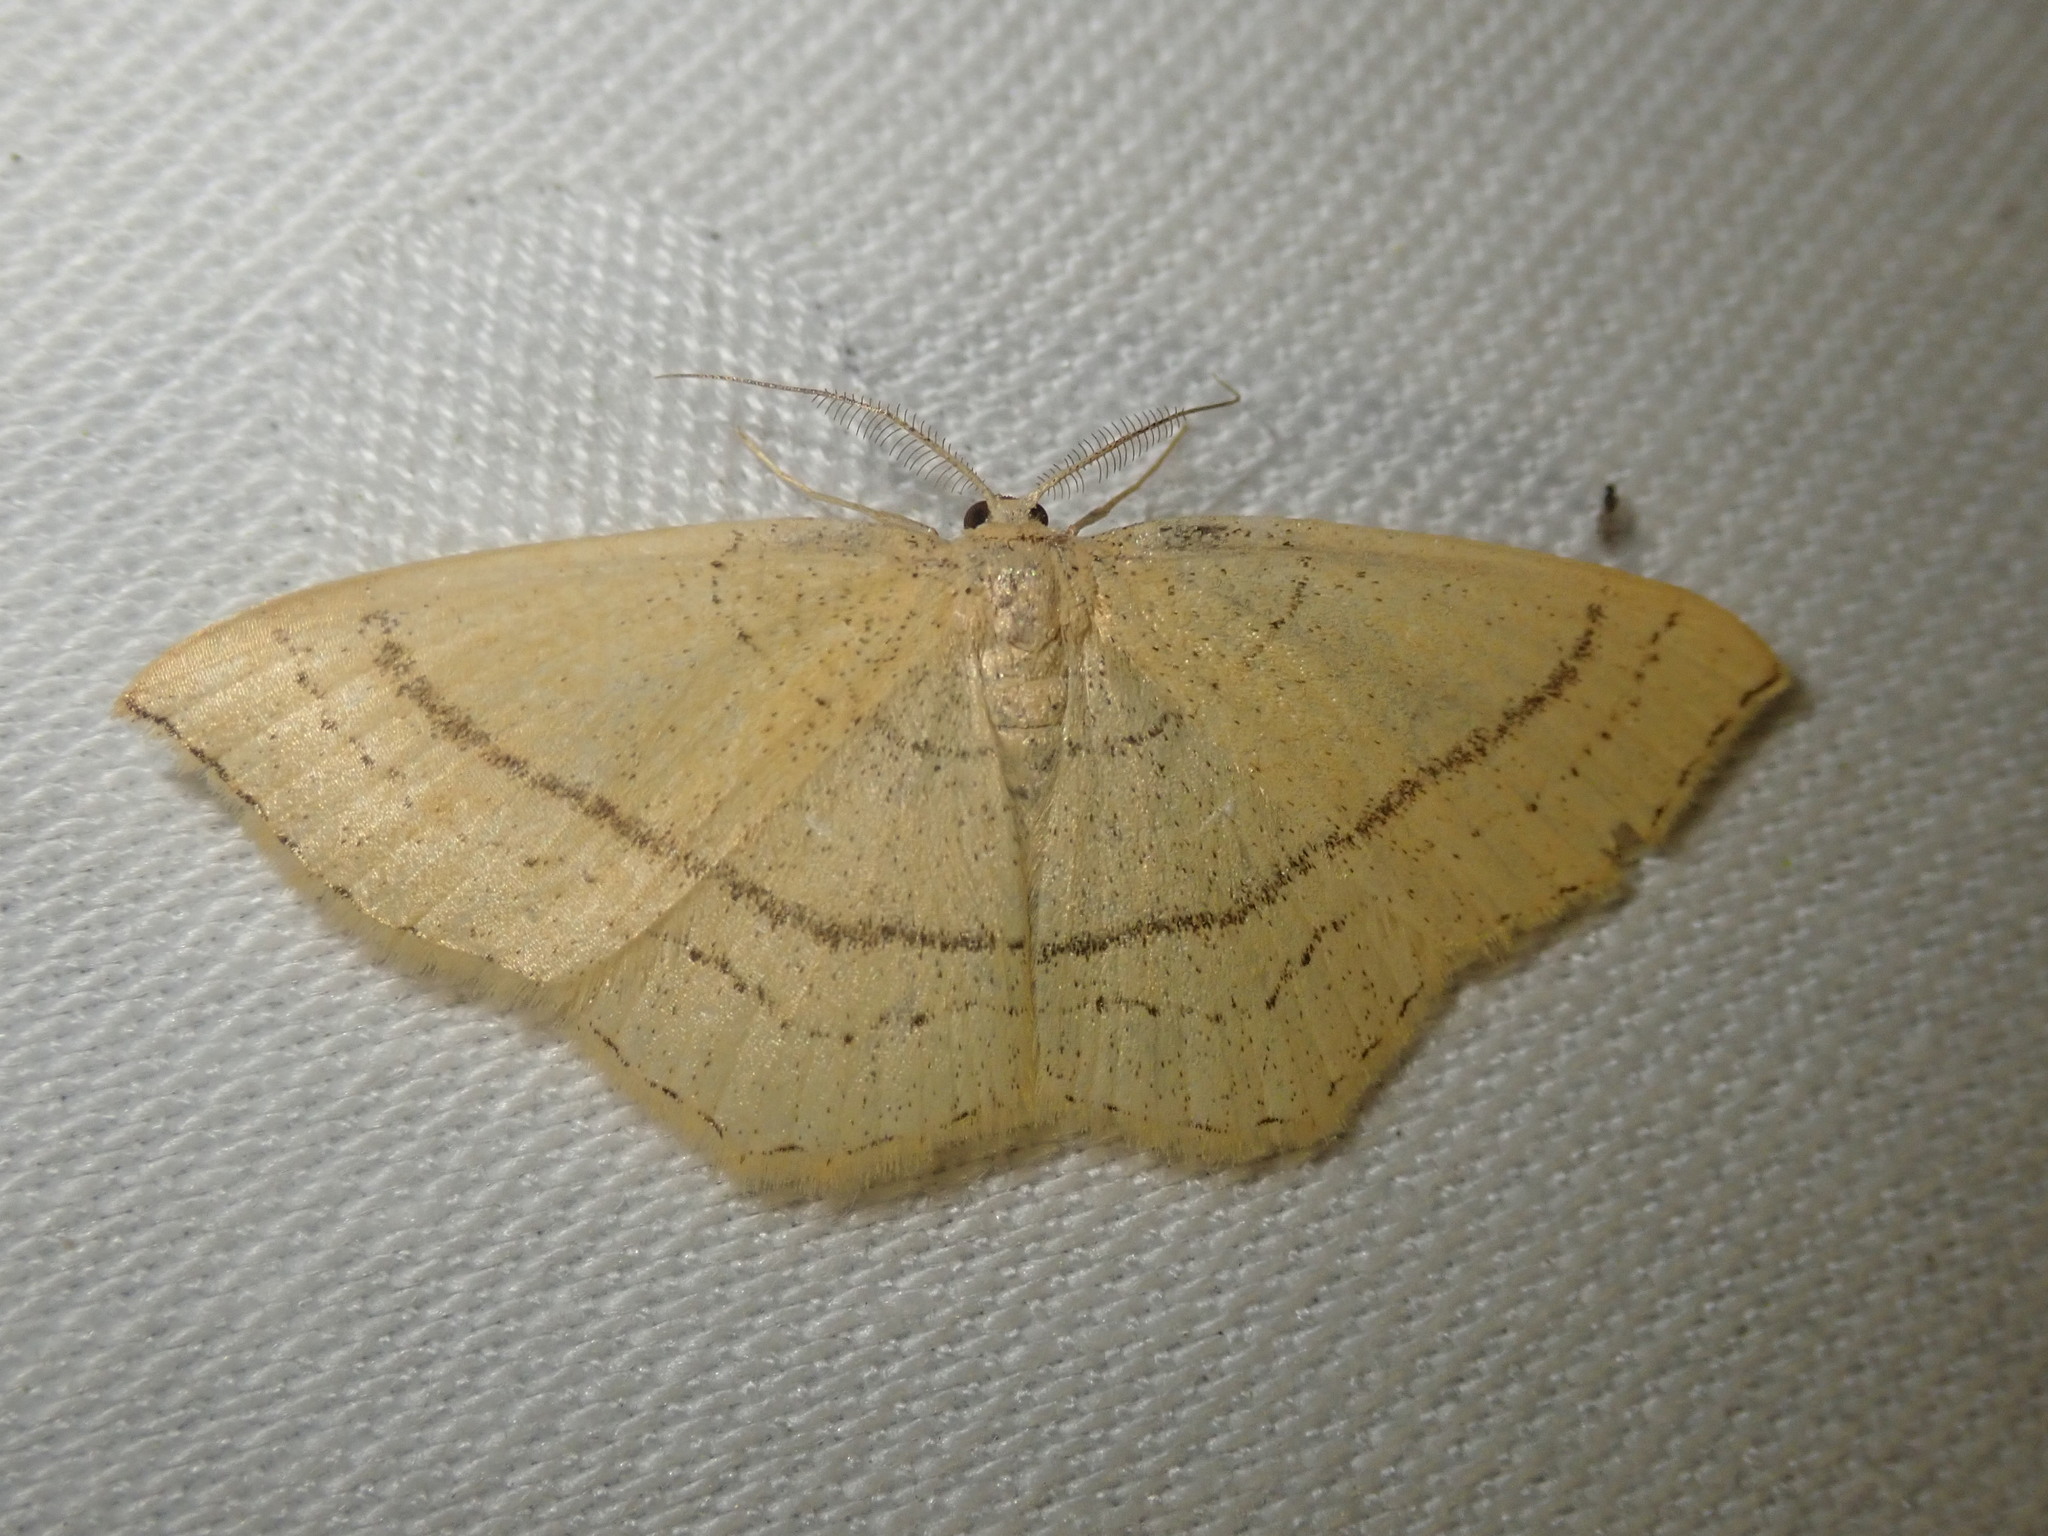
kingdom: Animalia
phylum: Arthropoda
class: Insecta
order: Lepidoptera
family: Geometridae
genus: Cyclophora
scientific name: Cyclophora linearia
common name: Clay triple-lines
